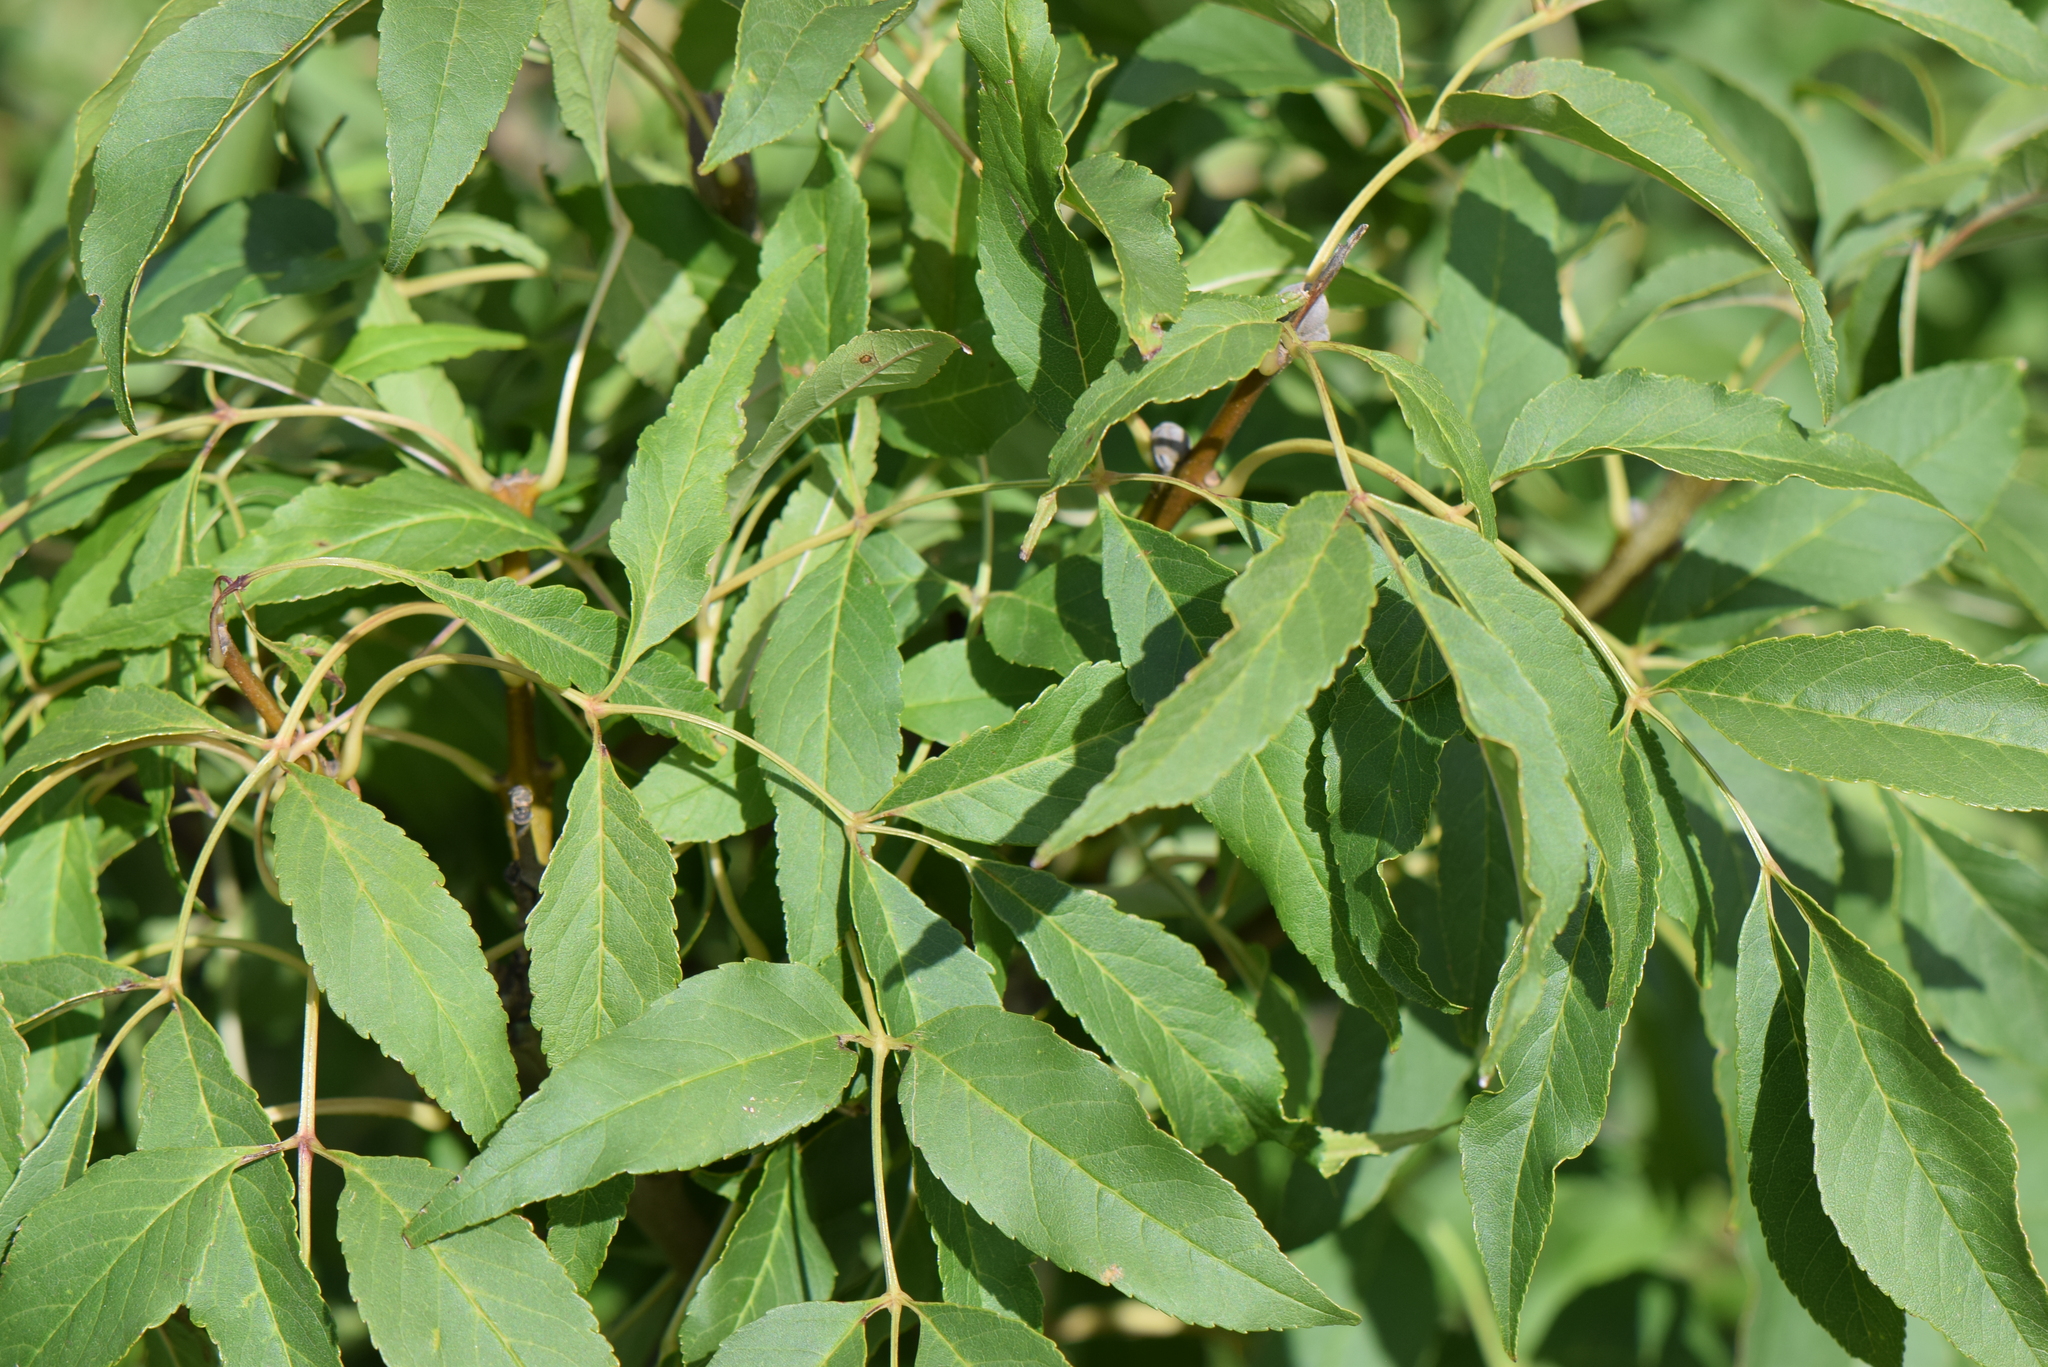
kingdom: Plantae
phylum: Tracheophyta
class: Magnoliopsida
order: Lamiales
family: Oleaceae
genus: Fraxinus
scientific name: Fraxinus ornus
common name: Manna ash
